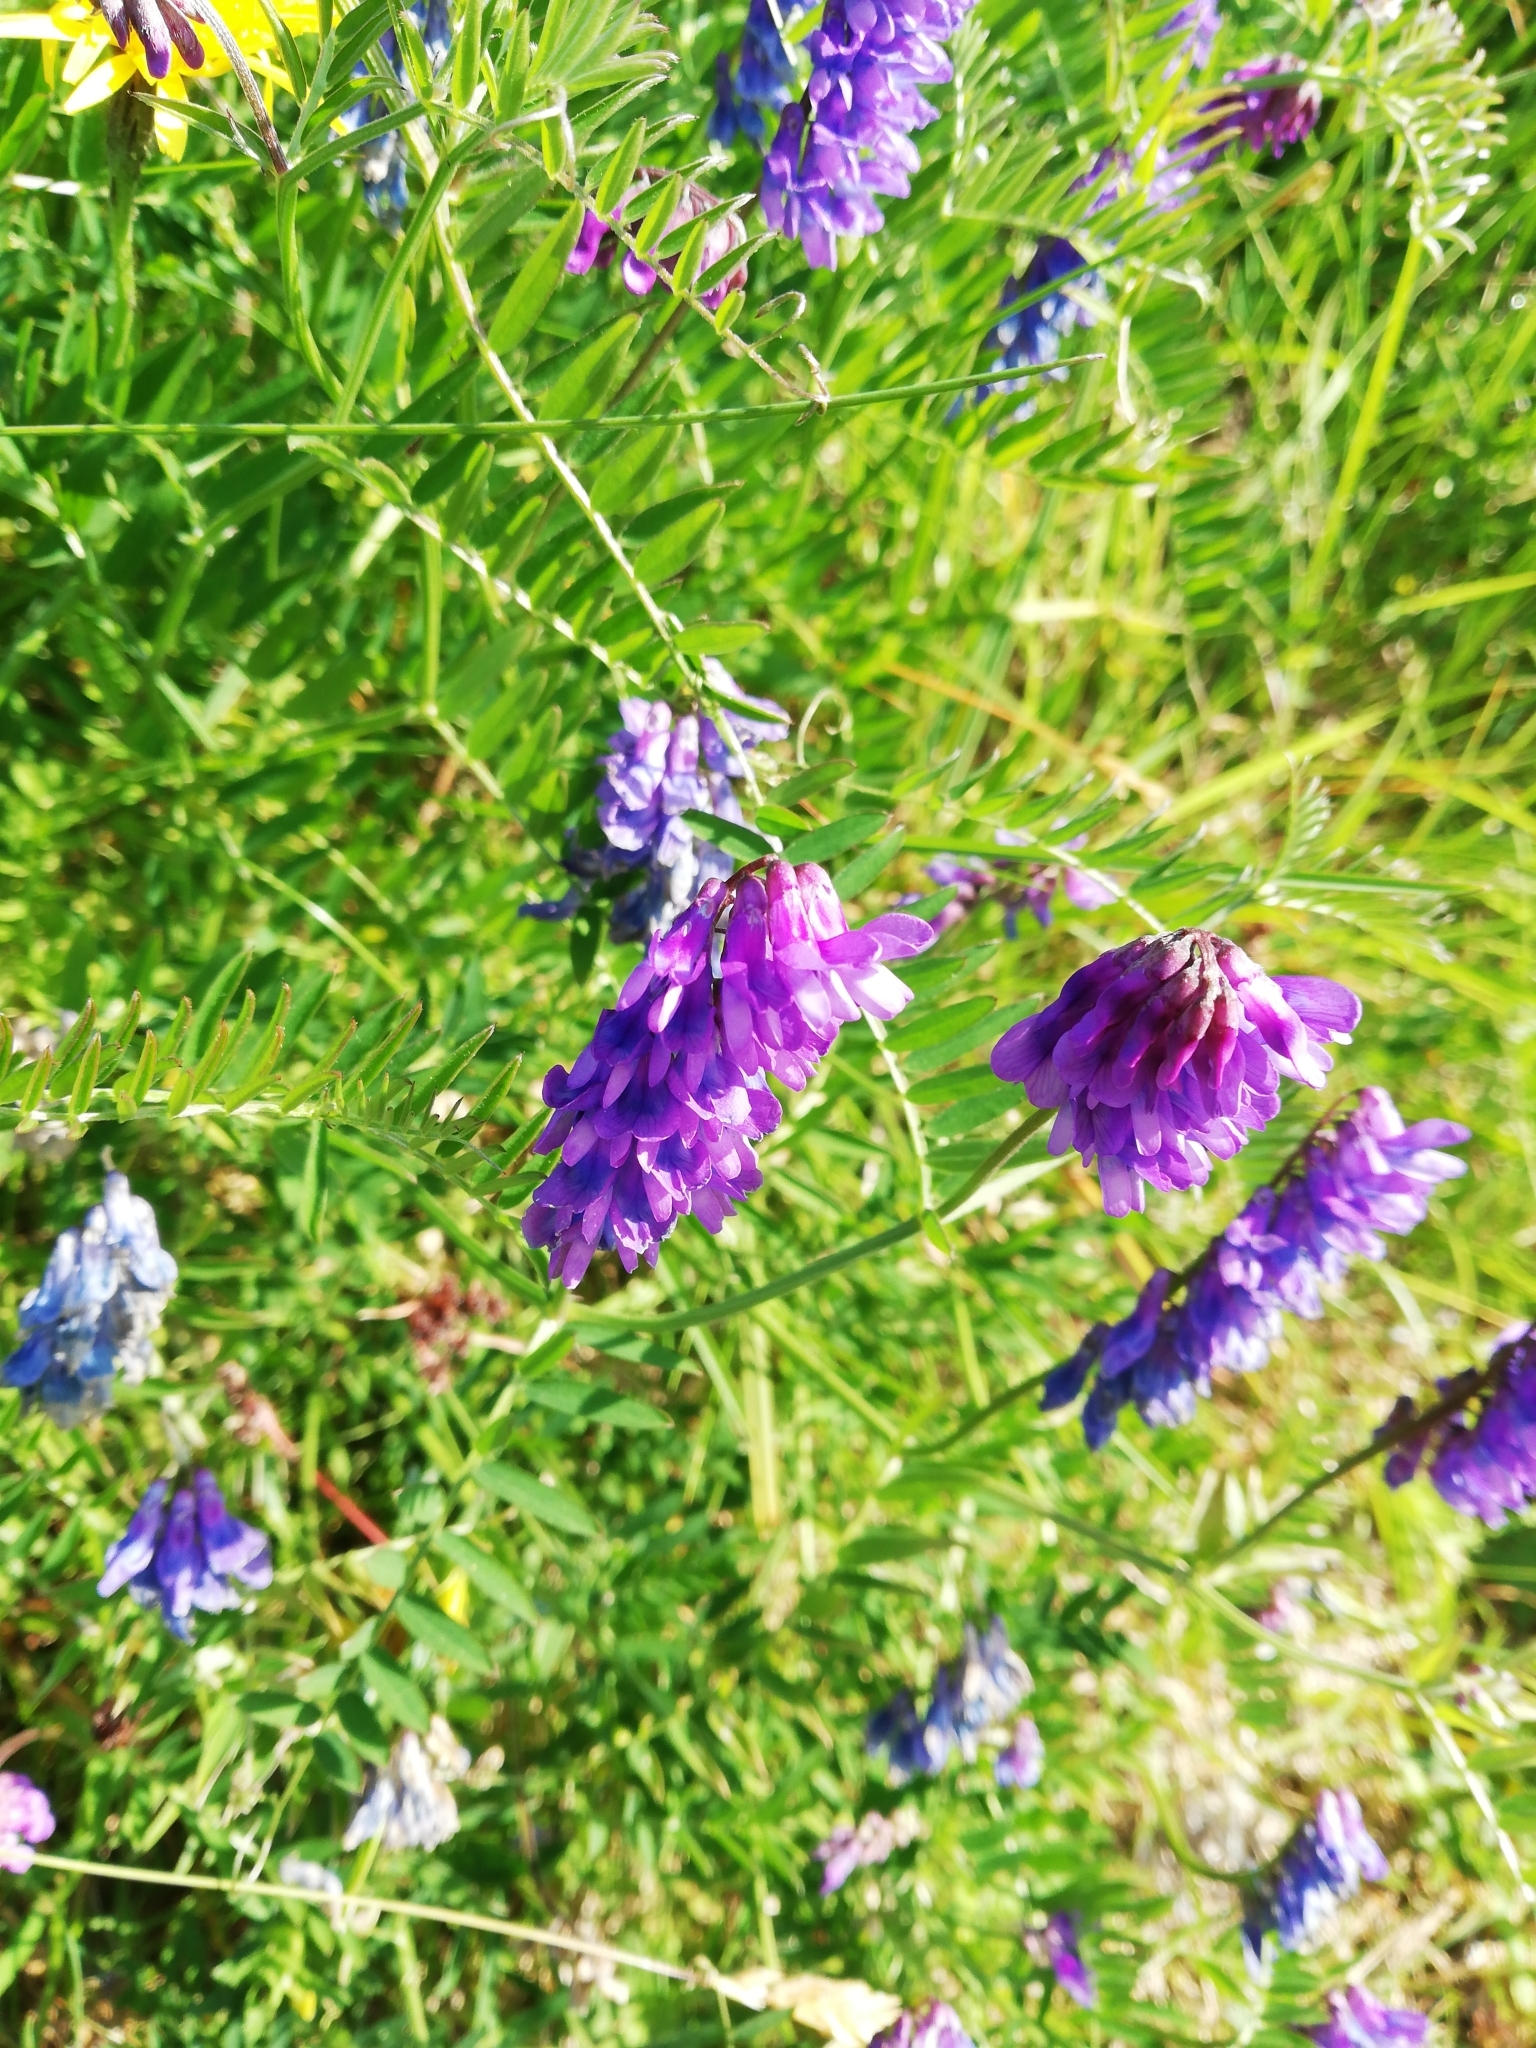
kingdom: Plantae
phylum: Tracheophyta
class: Magnoliopsida
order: Fabales
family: Fabaceae
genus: Vicia
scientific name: Vicia cracca
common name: Bird vetch
